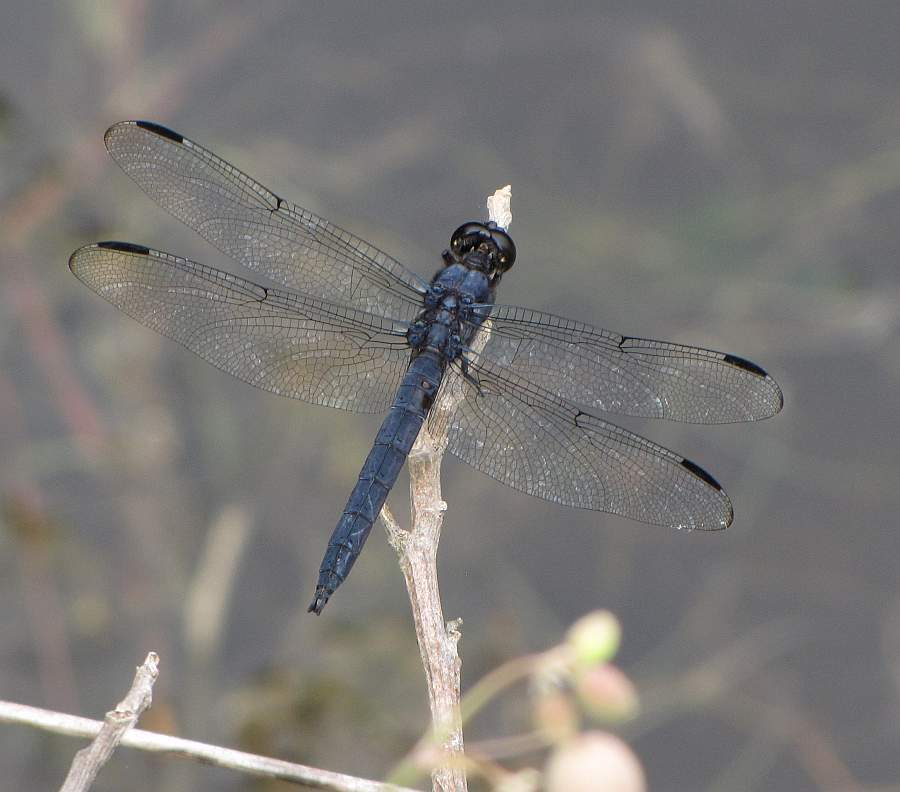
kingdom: Animalia
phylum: Arthropoda
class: Insecta
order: Odonata
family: Libellulidae
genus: Libellula
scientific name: Libellula incesta
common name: Slaty skimmer
